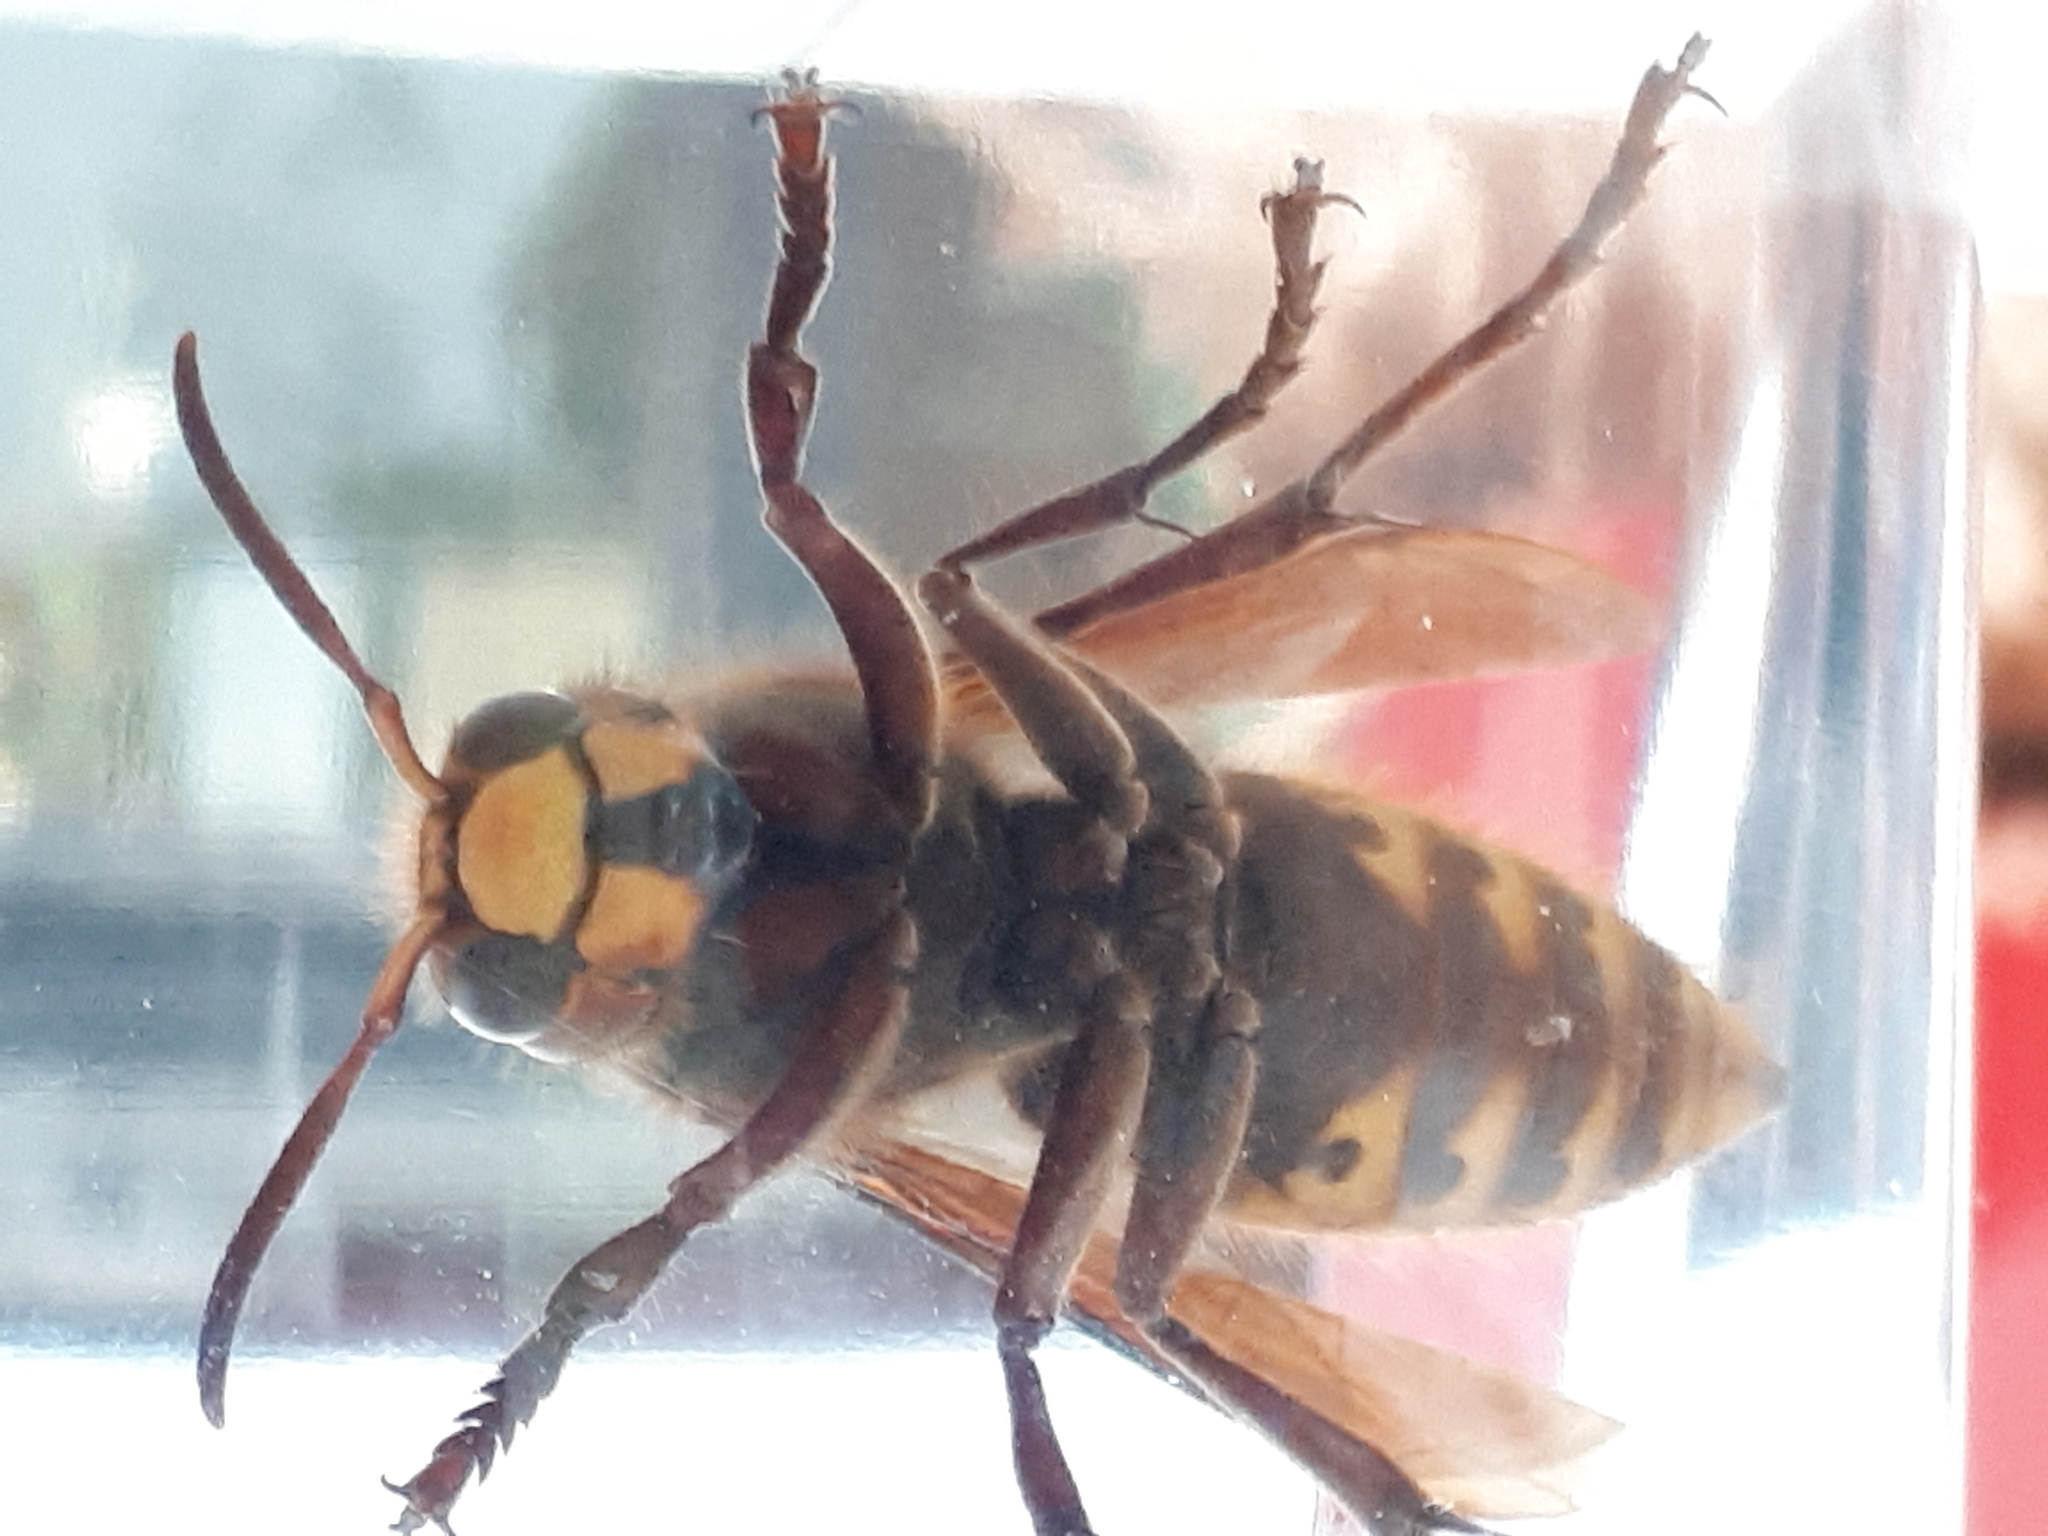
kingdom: Animalia
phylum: Arthropoda
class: Insecta
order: Hymenoptera
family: Vespidae
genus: Vespa
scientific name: Vespa crabro
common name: Hornet
